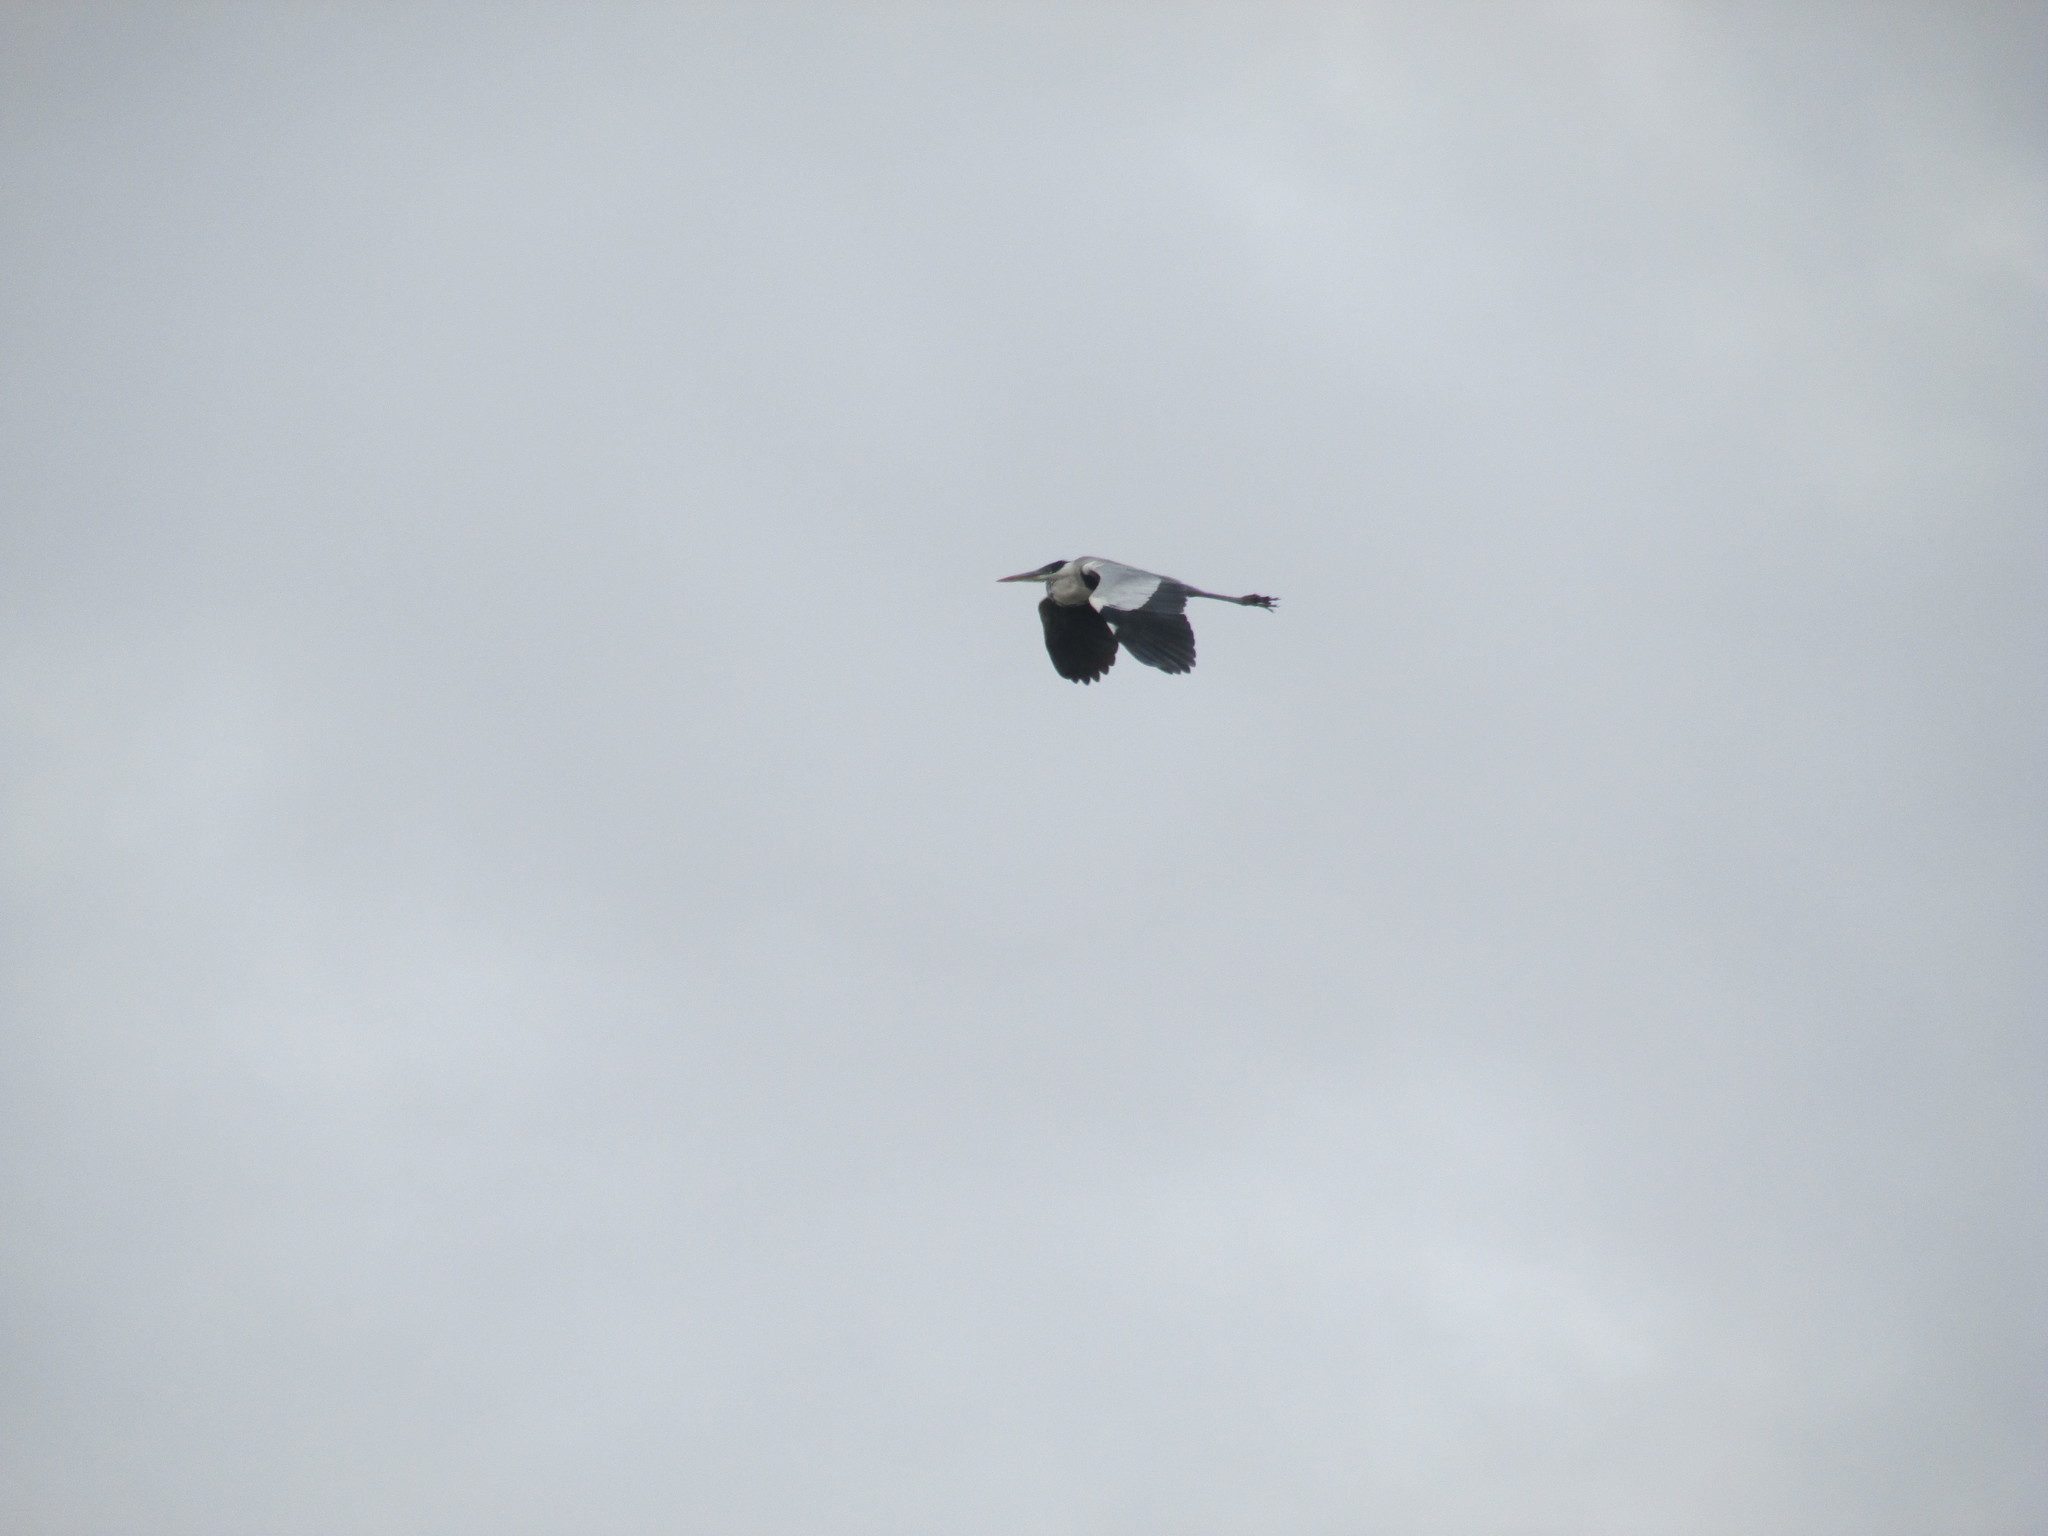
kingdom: Animalia
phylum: Chordata
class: Aves
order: Pelecaniformes
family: Ardeidae
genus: Ardea
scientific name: Ardea cocoi
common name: Cocoi heron
